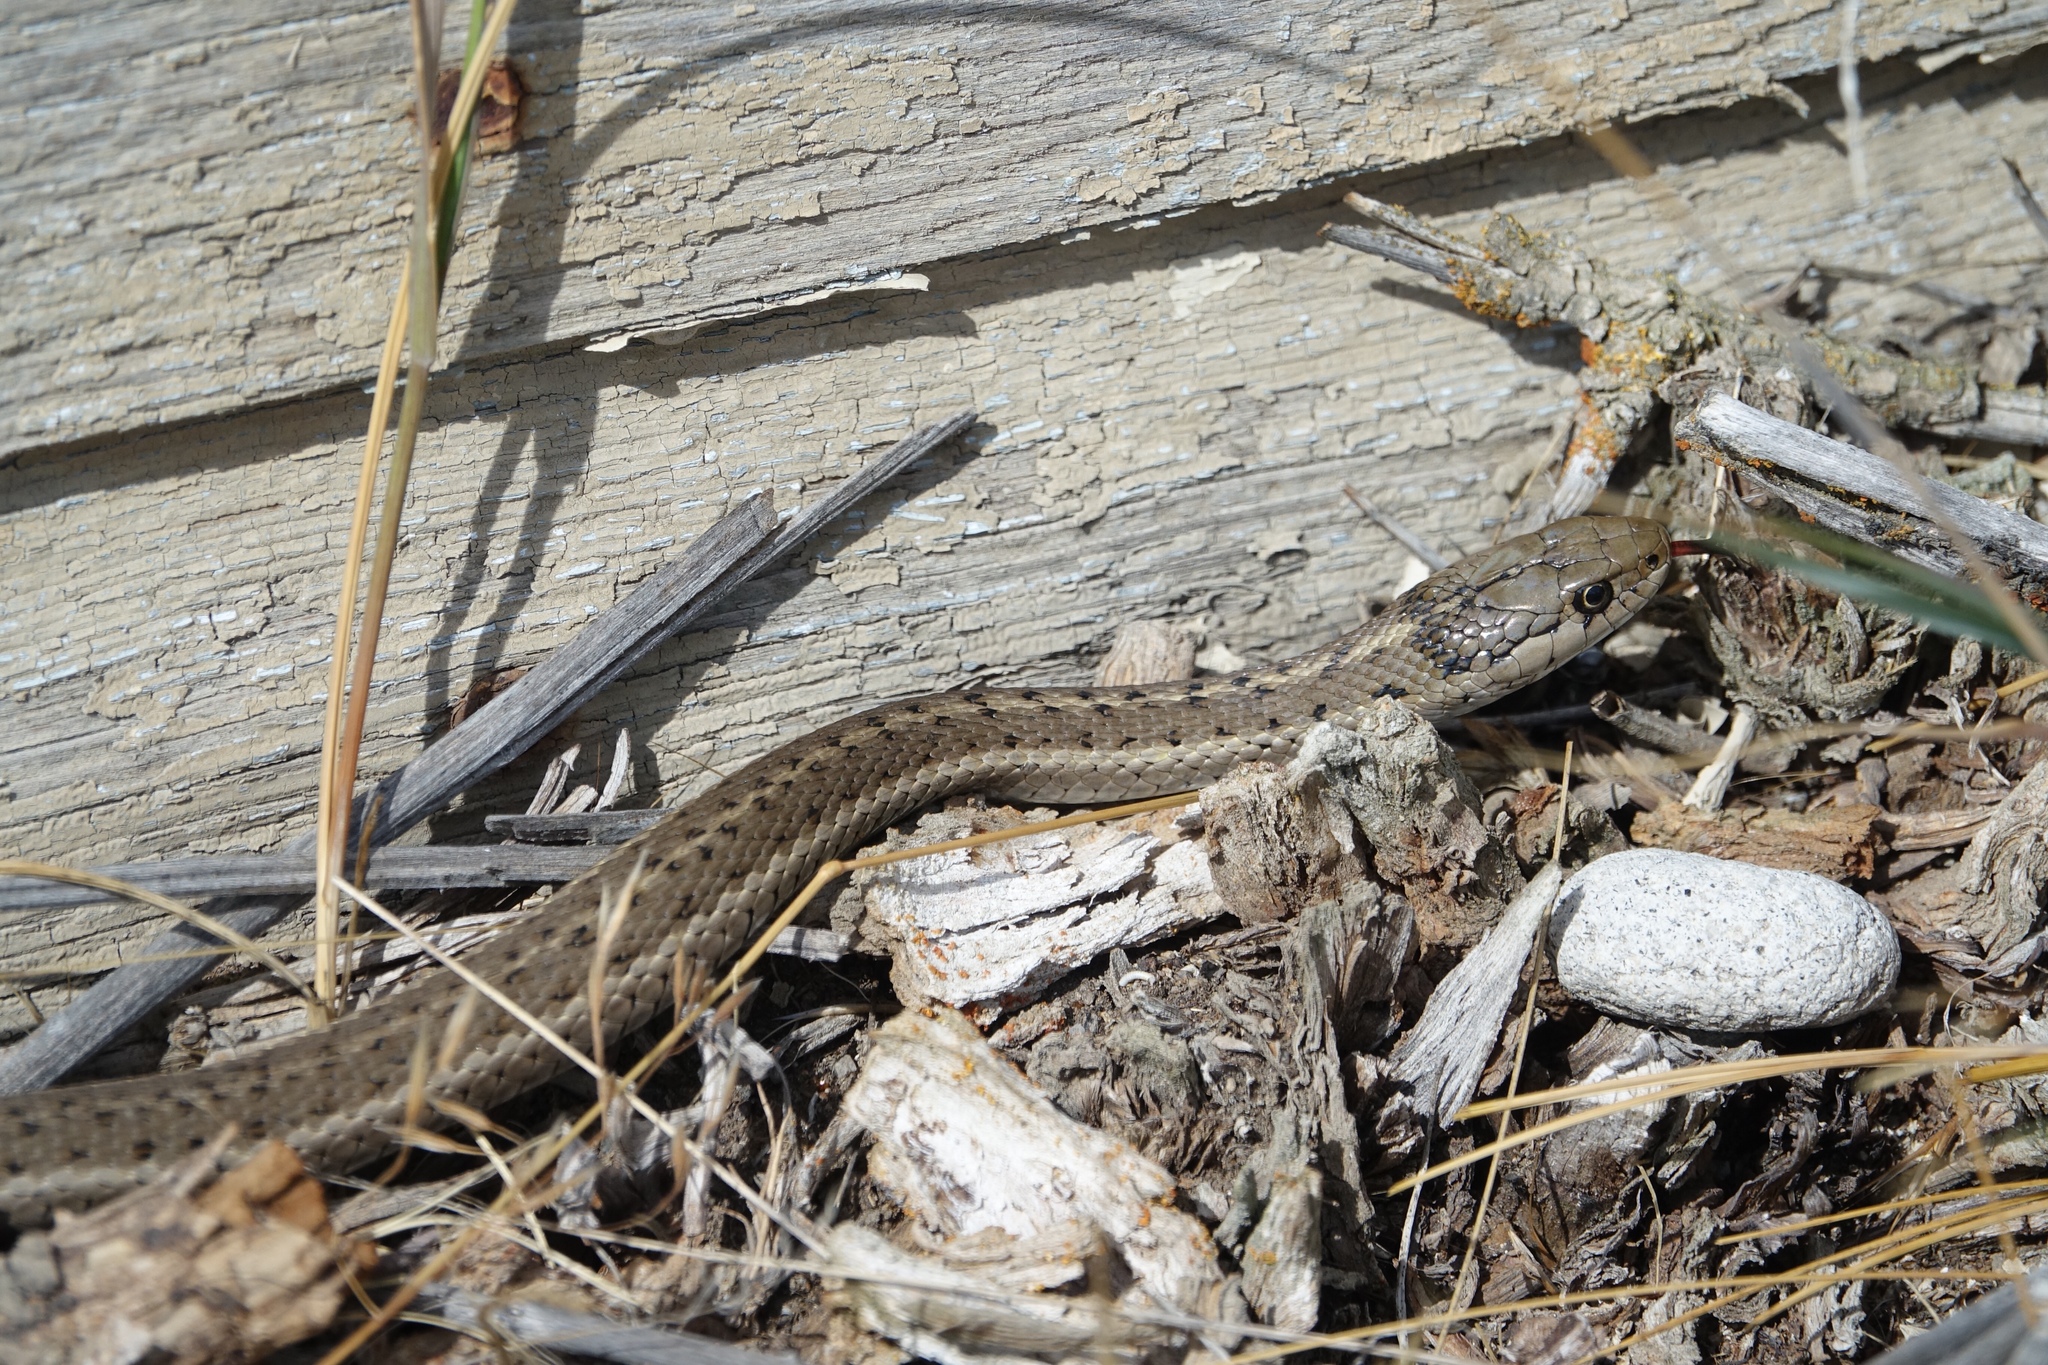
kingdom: Animalia
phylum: Chordata
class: Squamata
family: Colubridae
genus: Thamnophis
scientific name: Thamnophis elegans
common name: Western terrestrial garter snake
